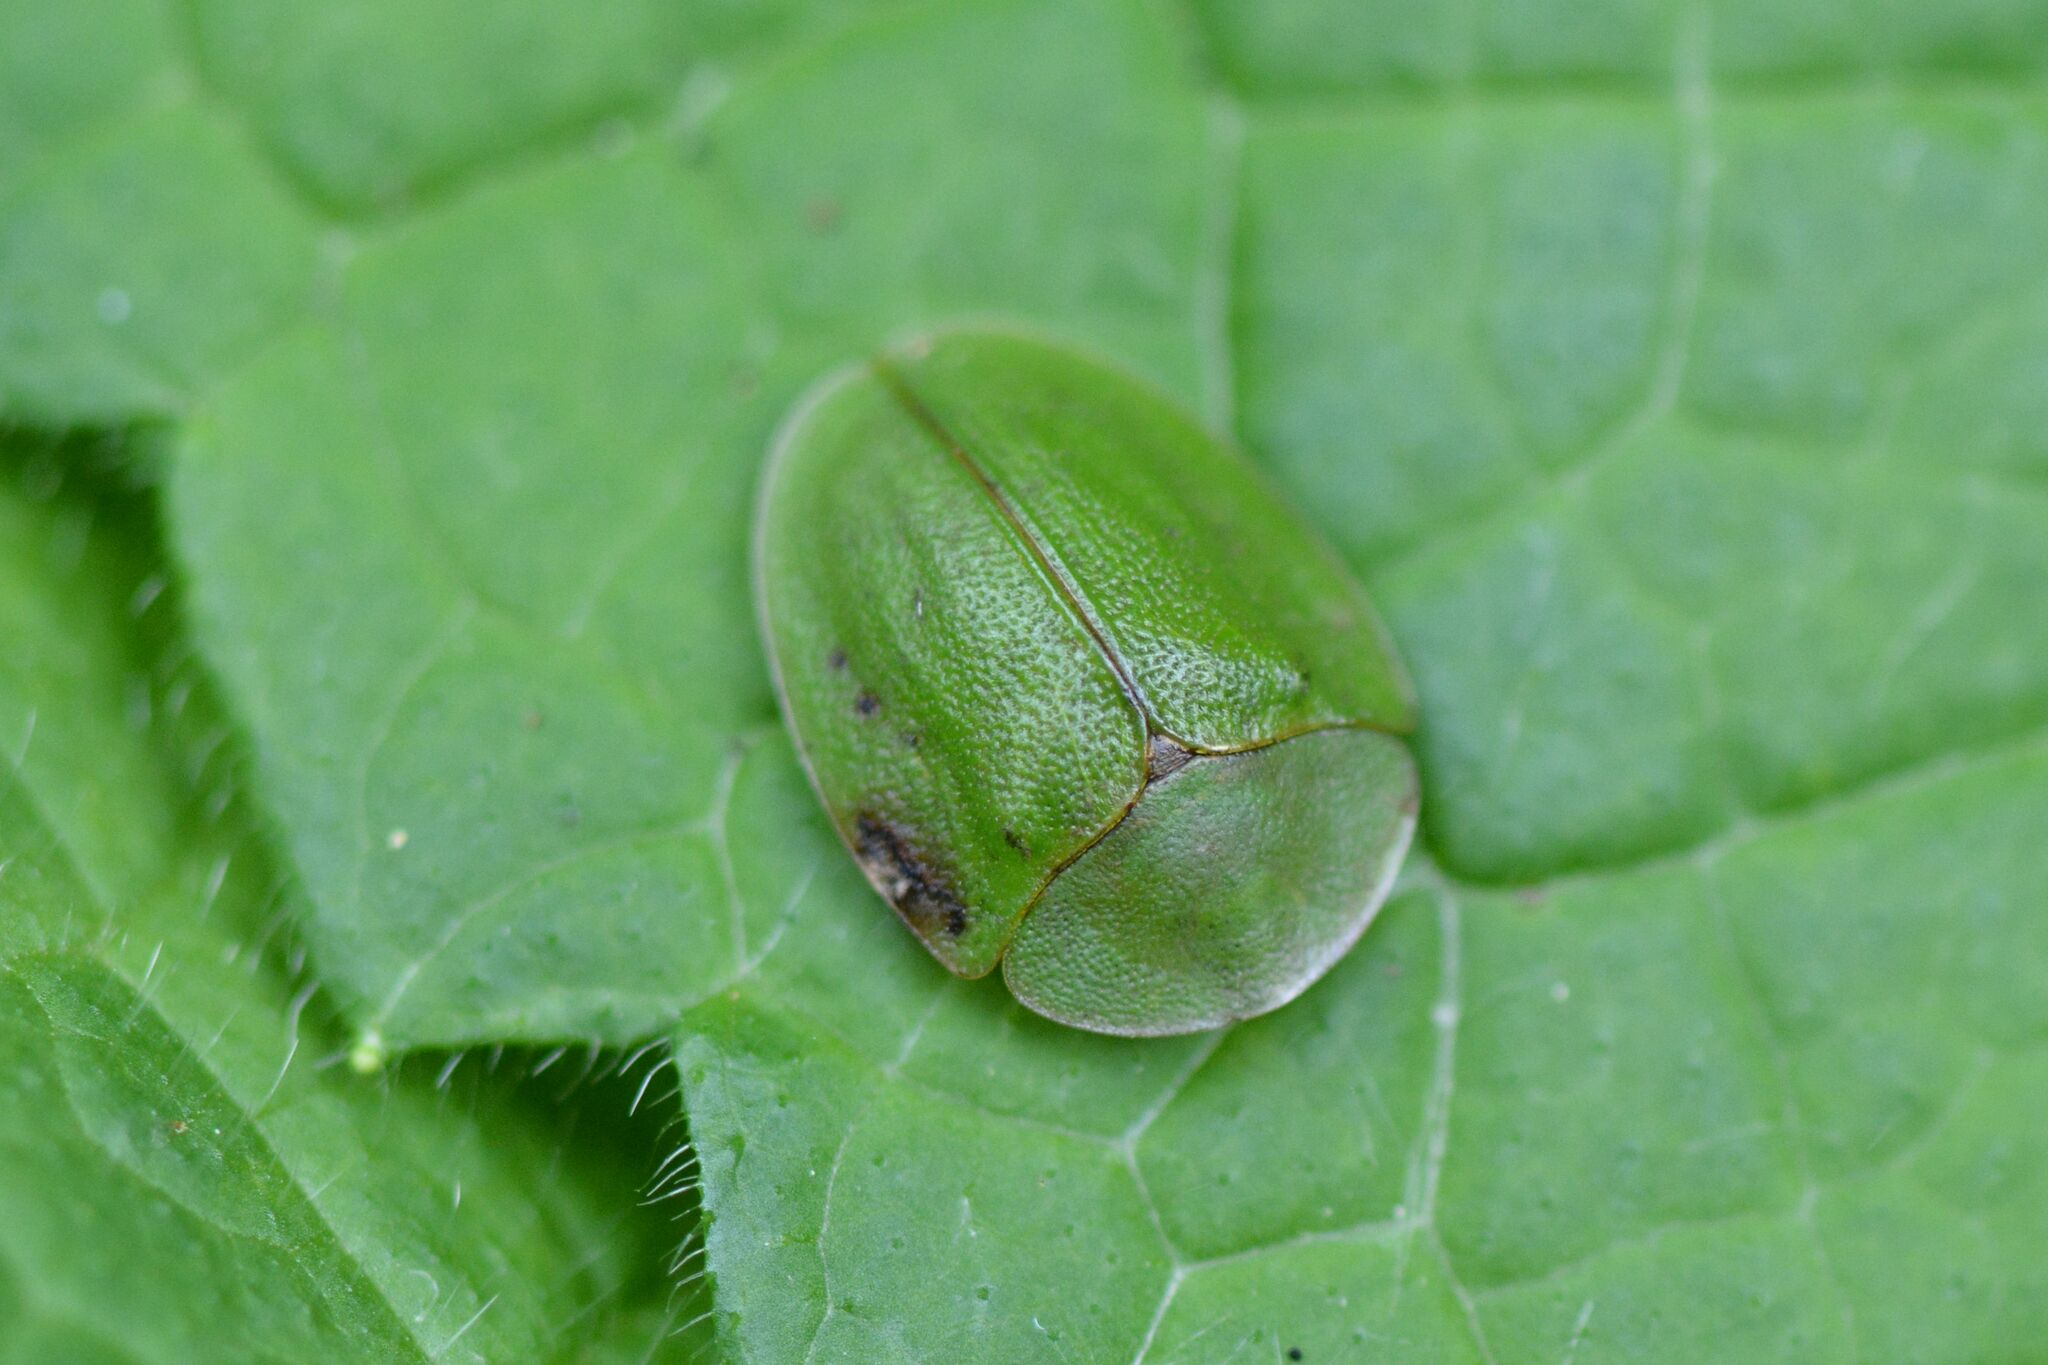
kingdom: Animalia
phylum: Arthropoda
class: Insecta
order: Coleoptera
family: Chrysomelidae
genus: Cassida
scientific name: Cassida viridis
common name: Green tortoise beetle
